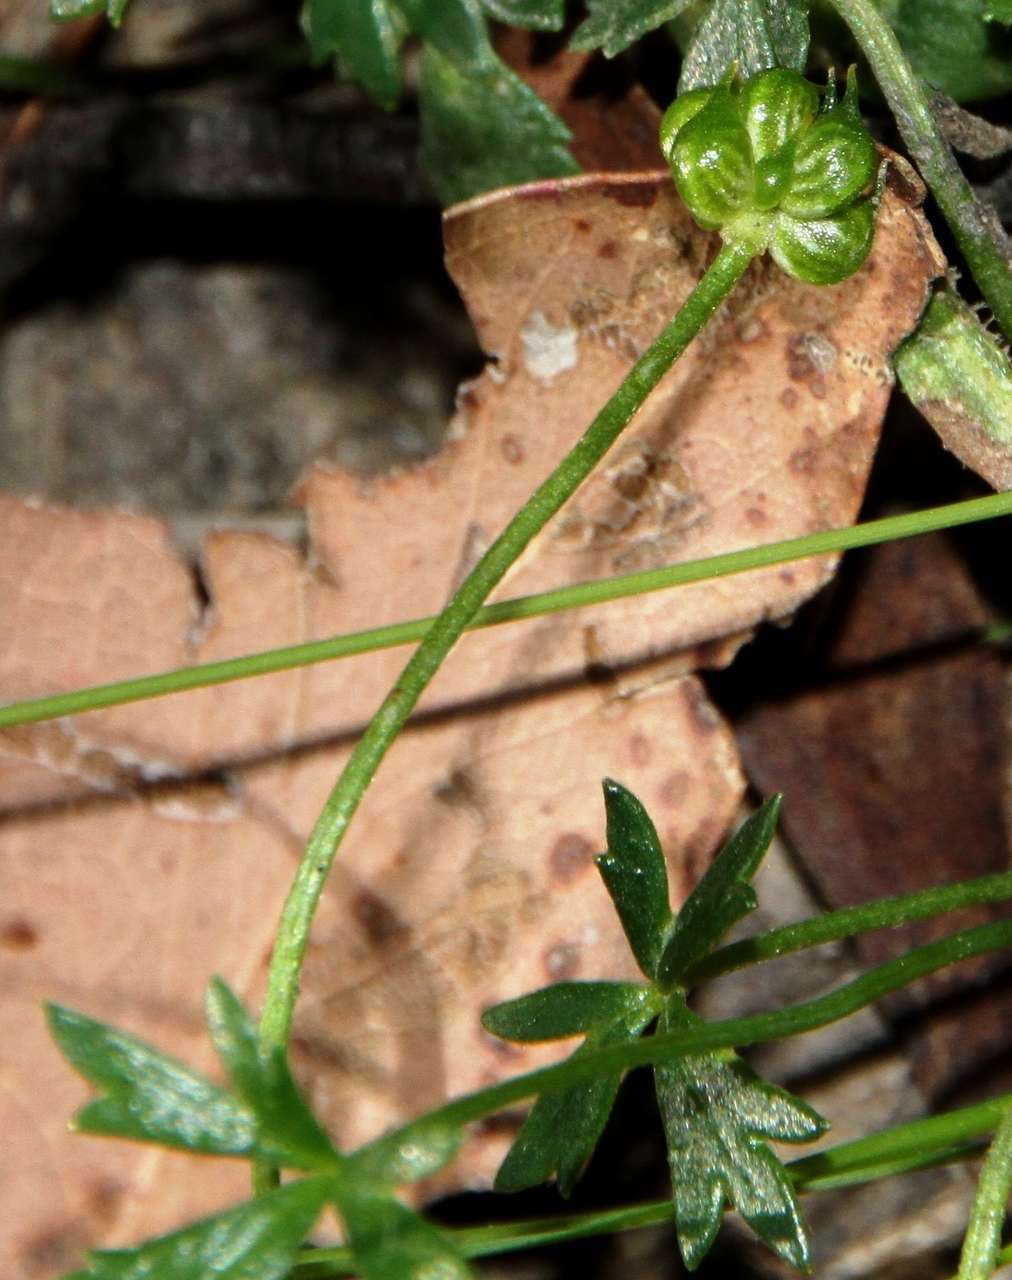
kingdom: Plantae
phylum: Tracheophyta
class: Magnoliopsida
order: Ranunculales
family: Ranunculaceae
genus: Ranunculus
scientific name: Ranunculus glabrifolius
